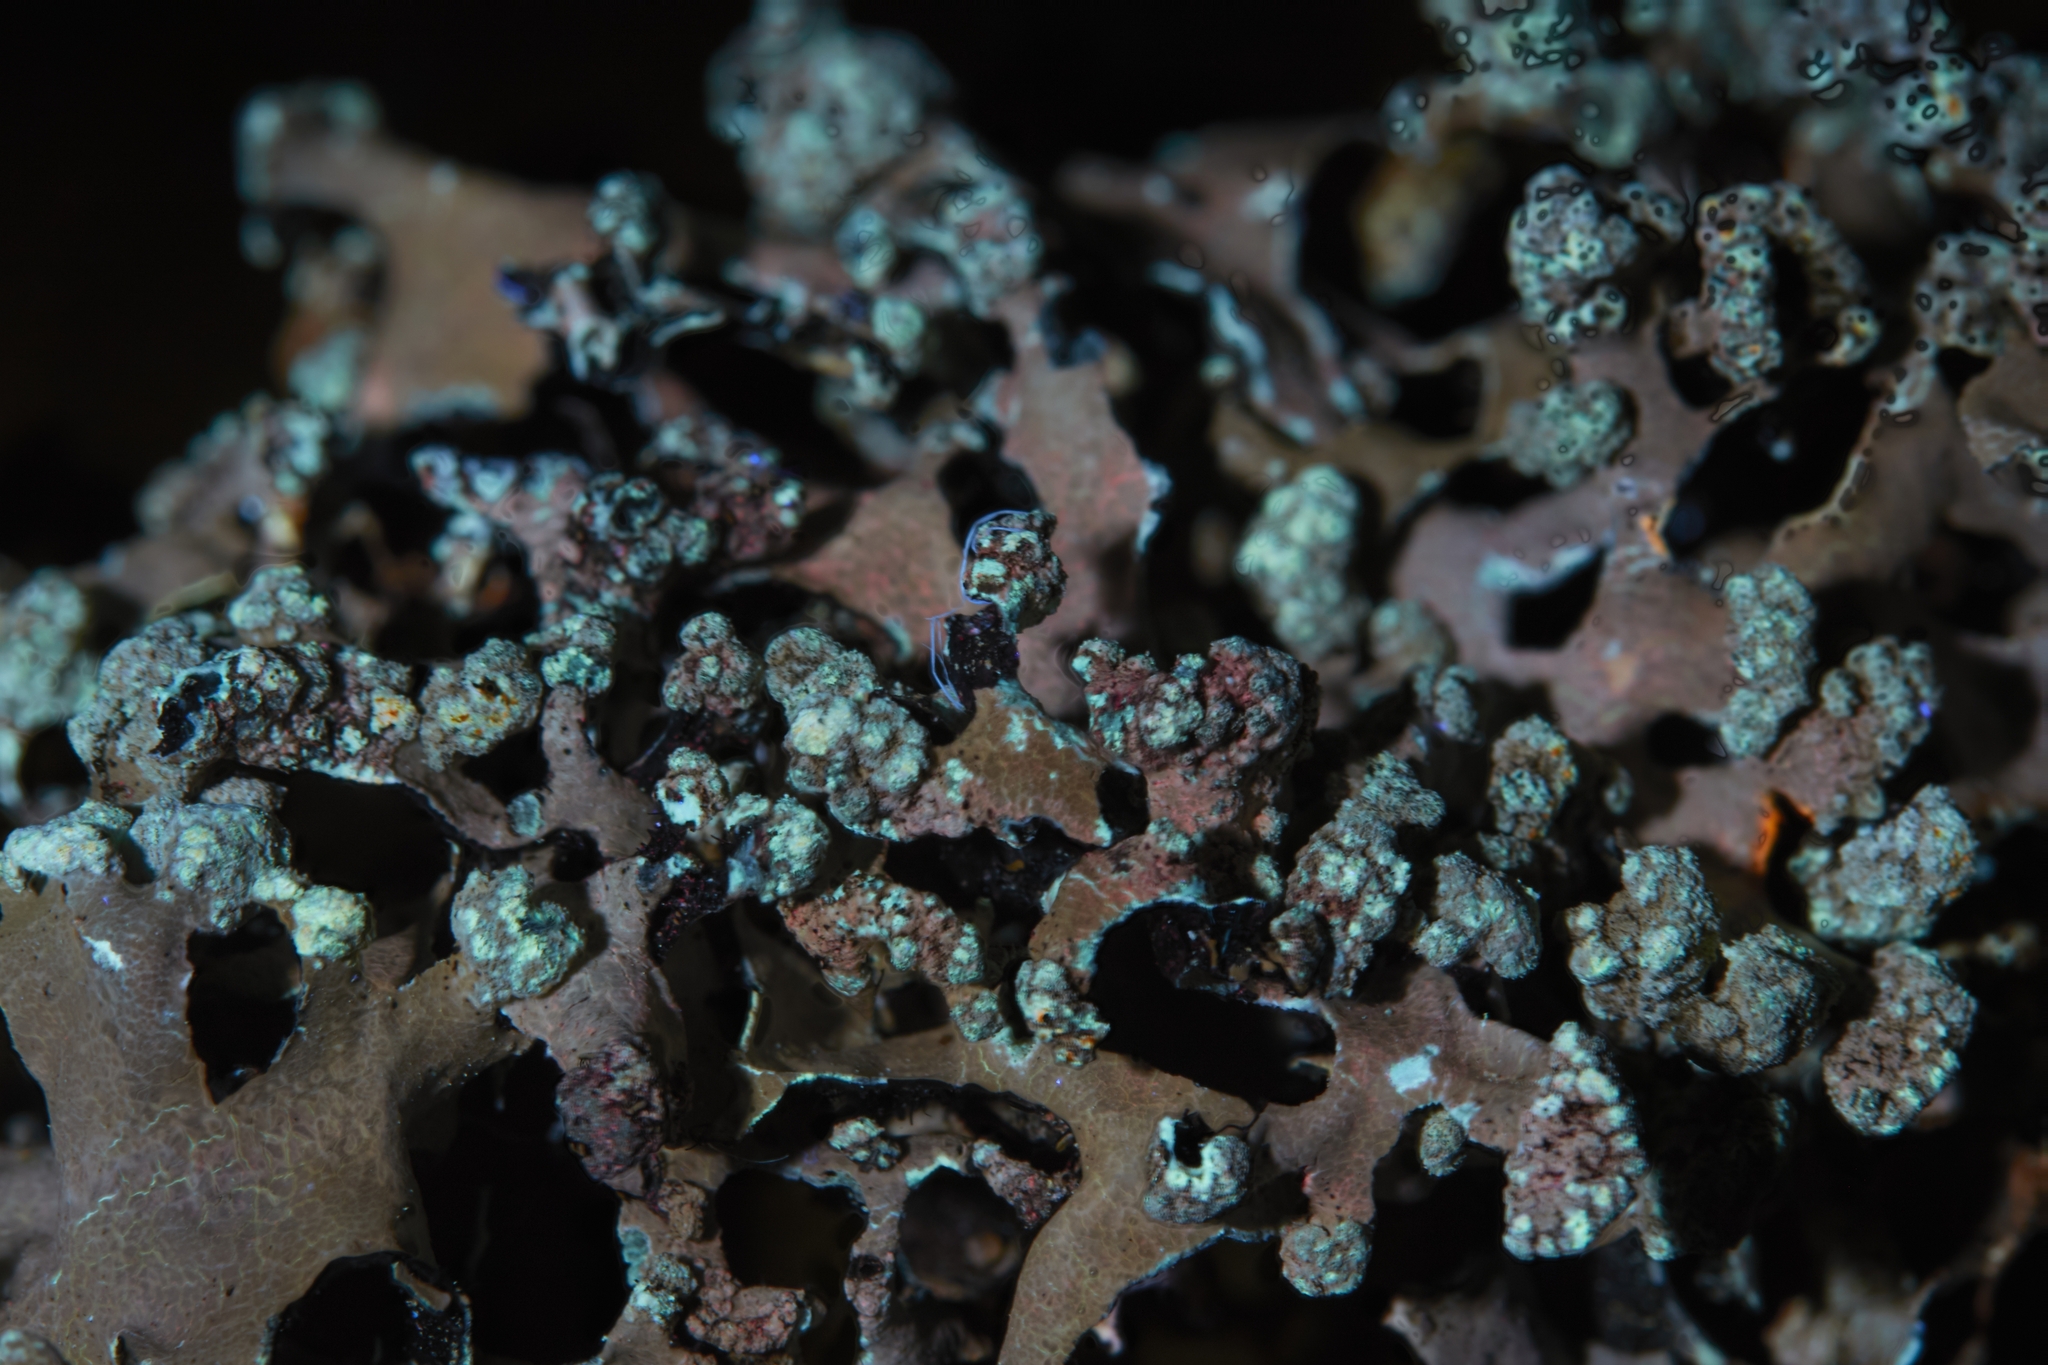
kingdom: Fungi
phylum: Ascomycota
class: Lecanoromycetes
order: Lecanorales
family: Parmeliaceae
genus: Parmotrema
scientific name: Parmotrema reticulatum
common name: Black sheet lichen
